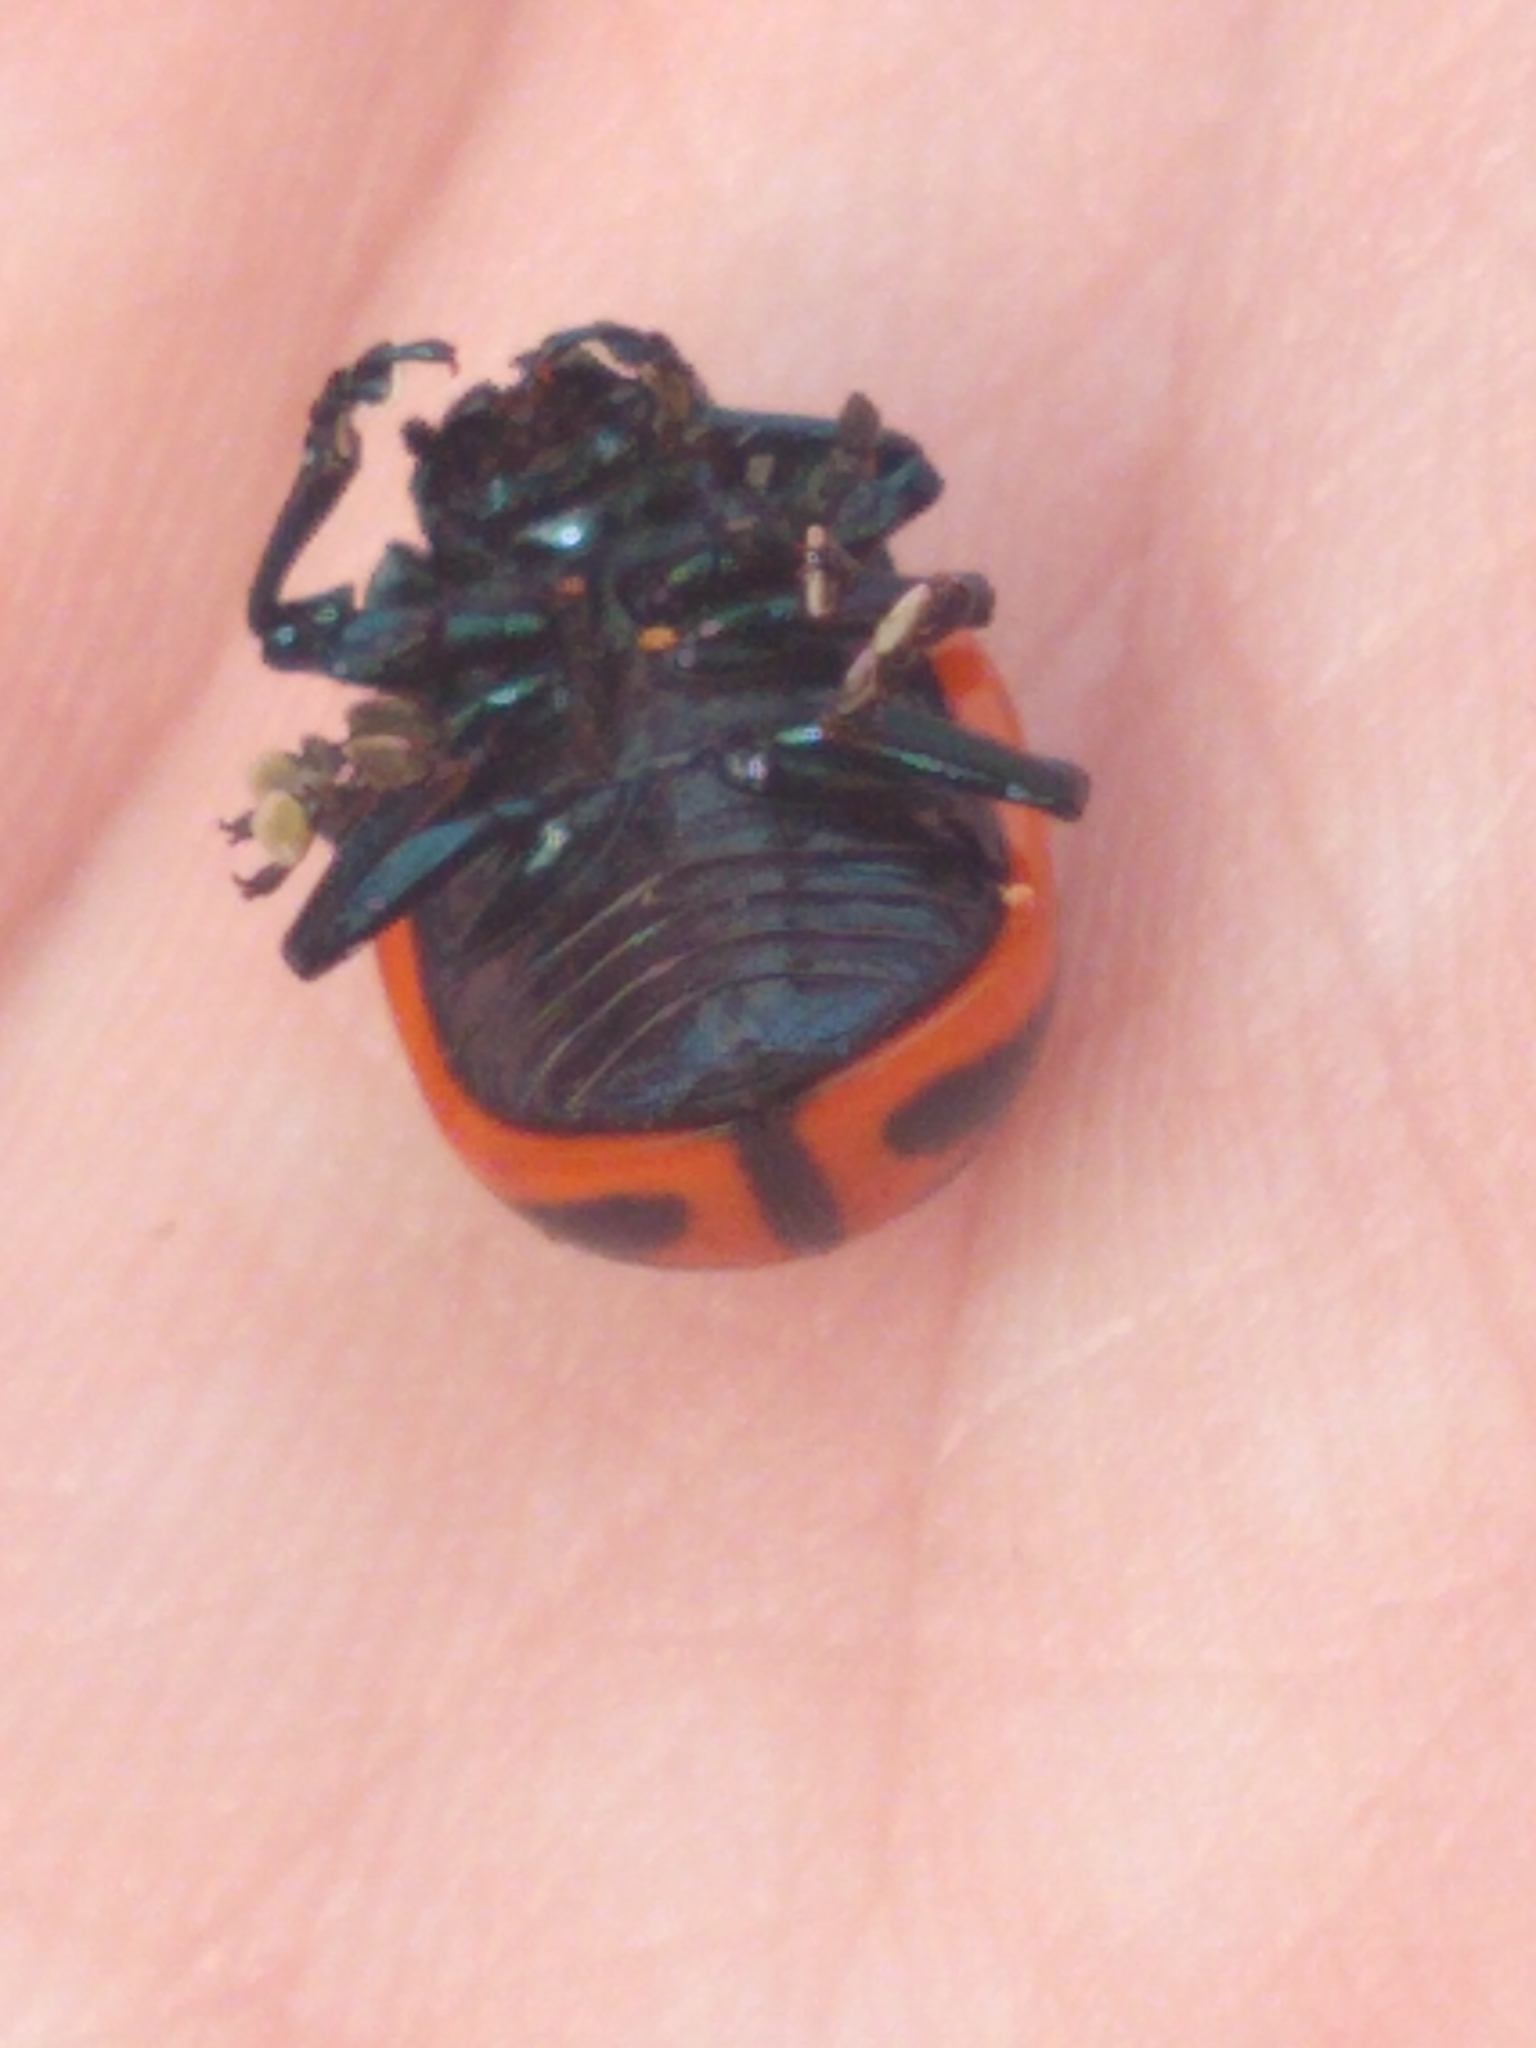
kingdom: Animalia
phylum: Arthropoda
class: Insecta
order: Coleoptera
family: Chrysomelidae
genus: Labidomera
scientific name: Labidomera clivicollis
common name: Swamp milkweed leaf beetle
